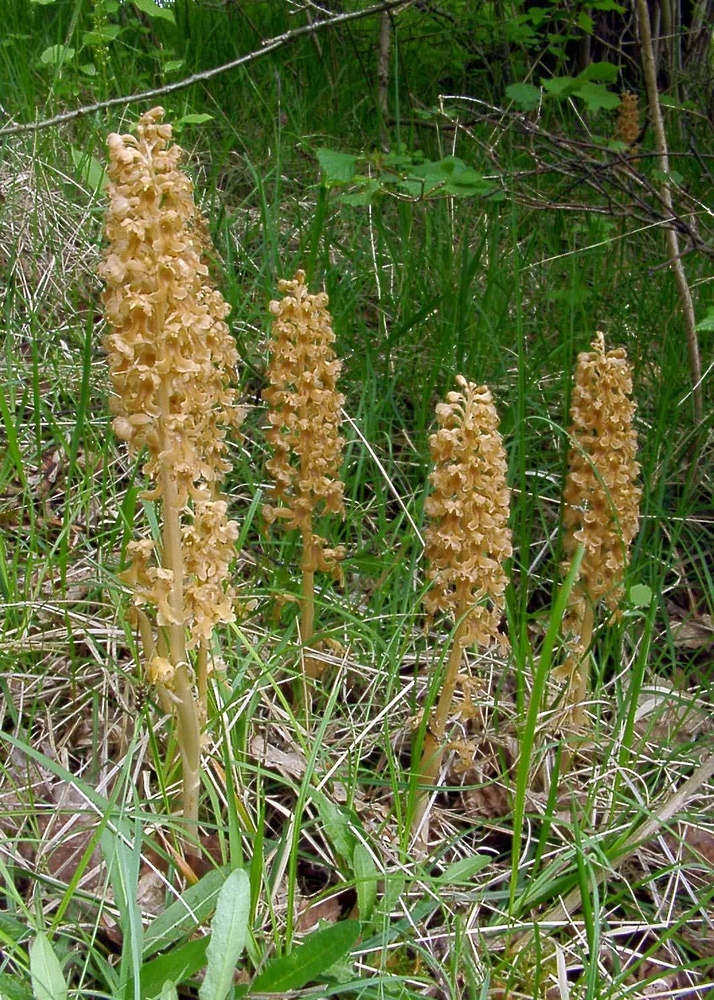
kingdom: Plantae
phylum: Tracheophyta
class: Liliopsida
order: Asparagales
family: Orchidaceae
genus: Neottia
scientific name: Neottia nidus-avis
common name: Bird's-nest orchid
